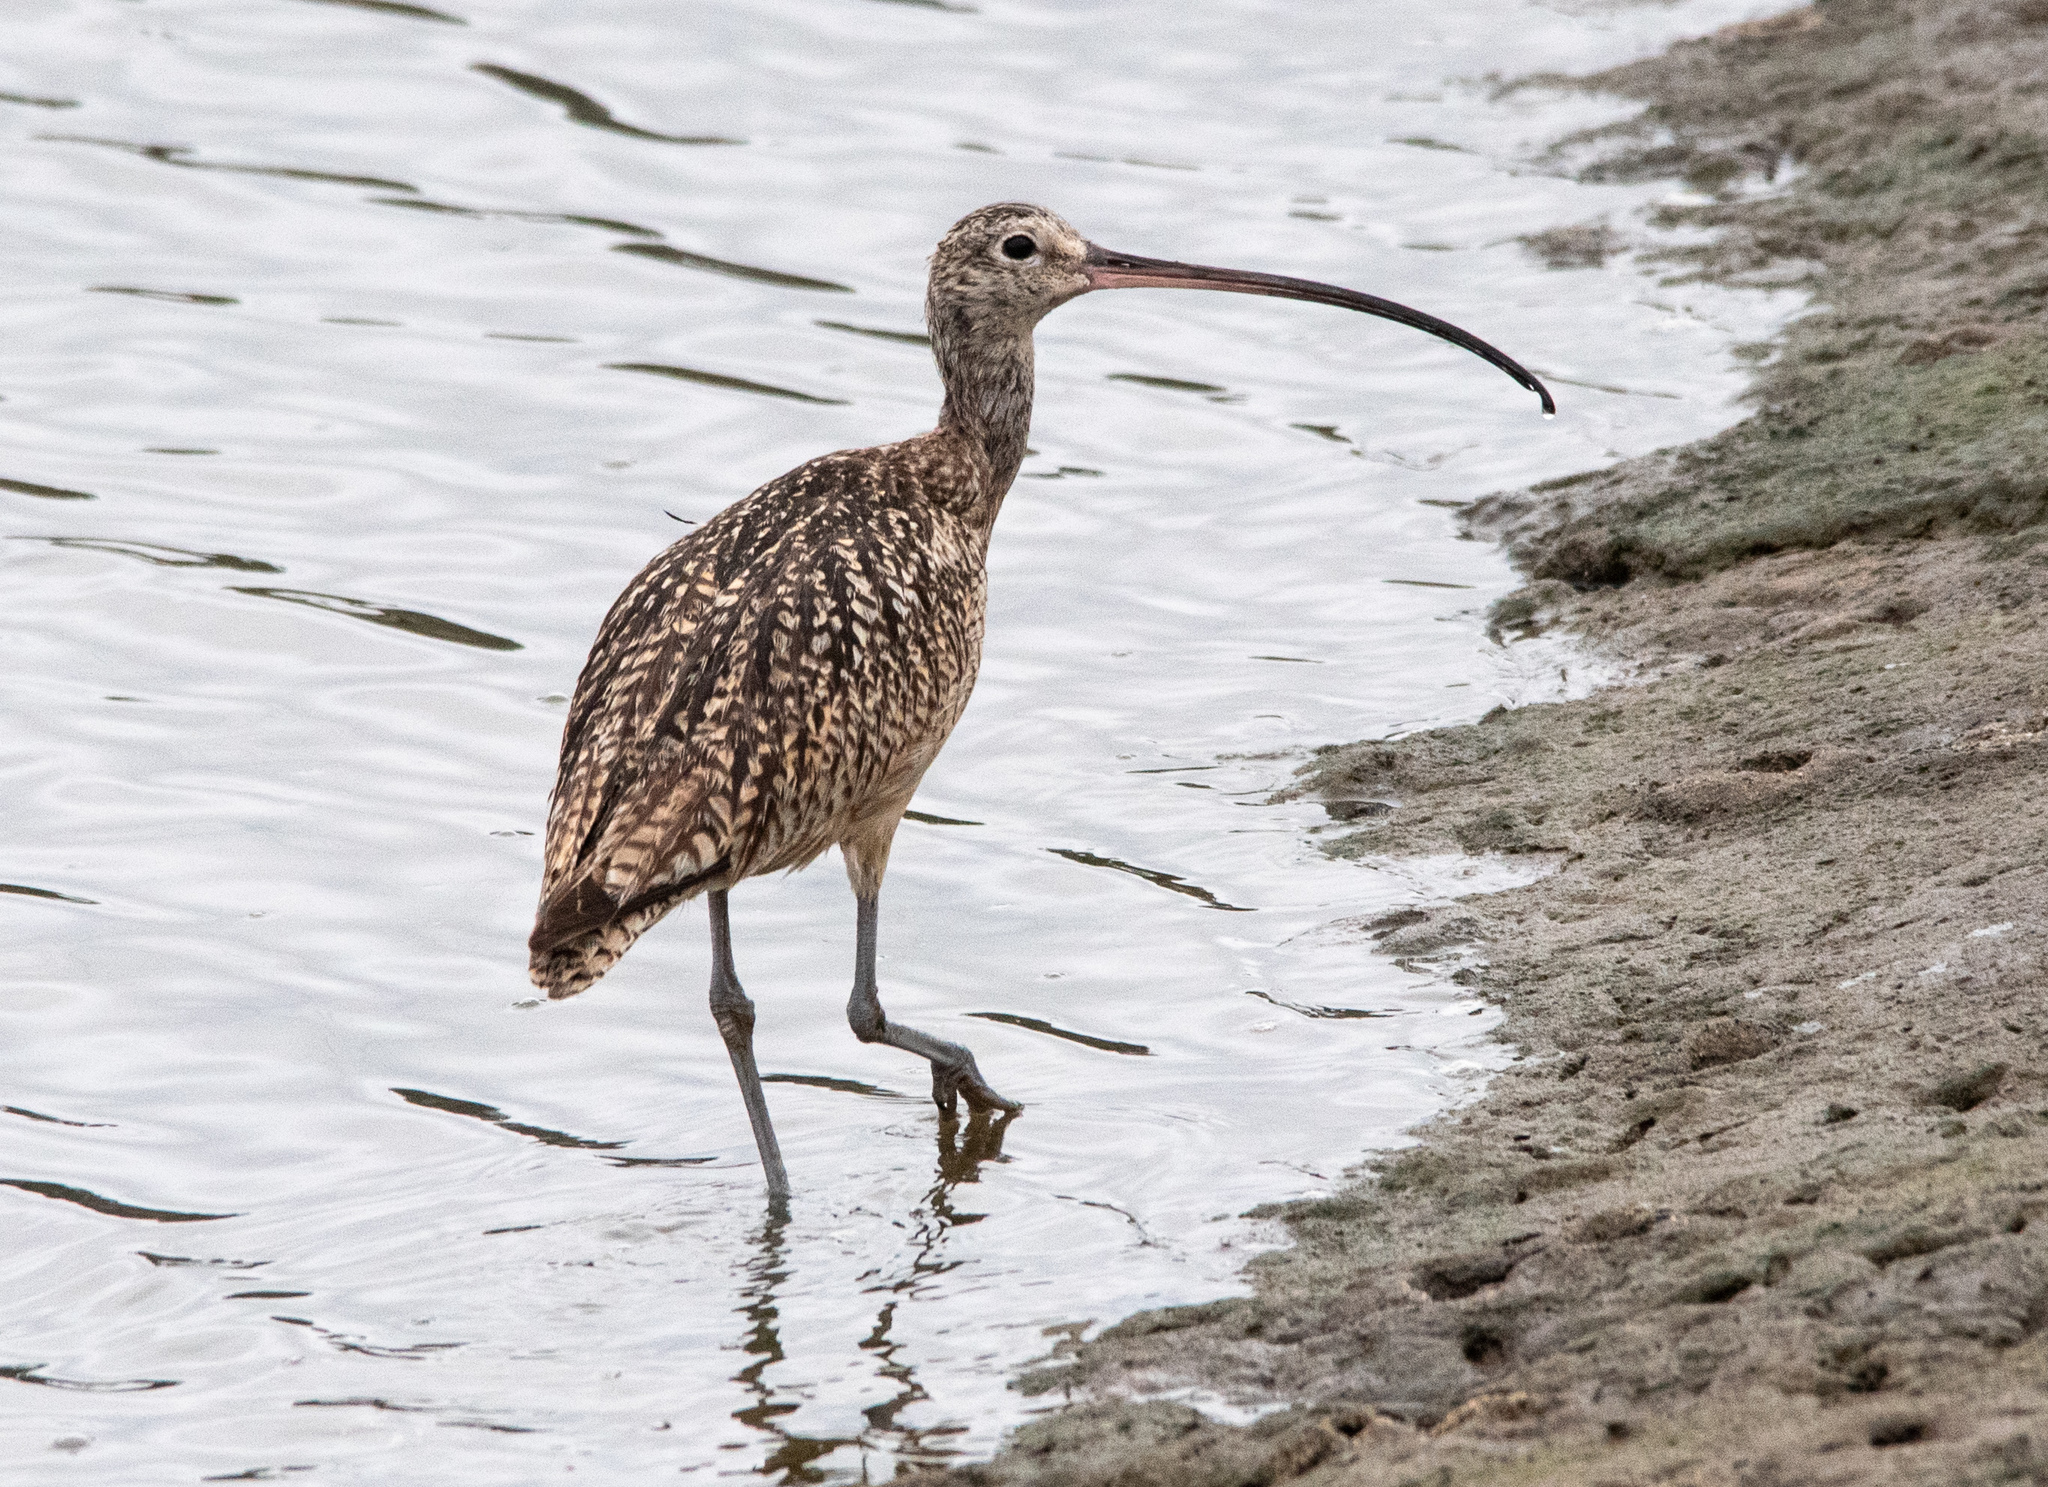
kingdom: Animalia
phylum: Chordata
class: Aves
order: Charadriiformes
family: Scolopacidae
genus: Numenius
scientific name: Numenius americanus
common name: Long-billed curlew
